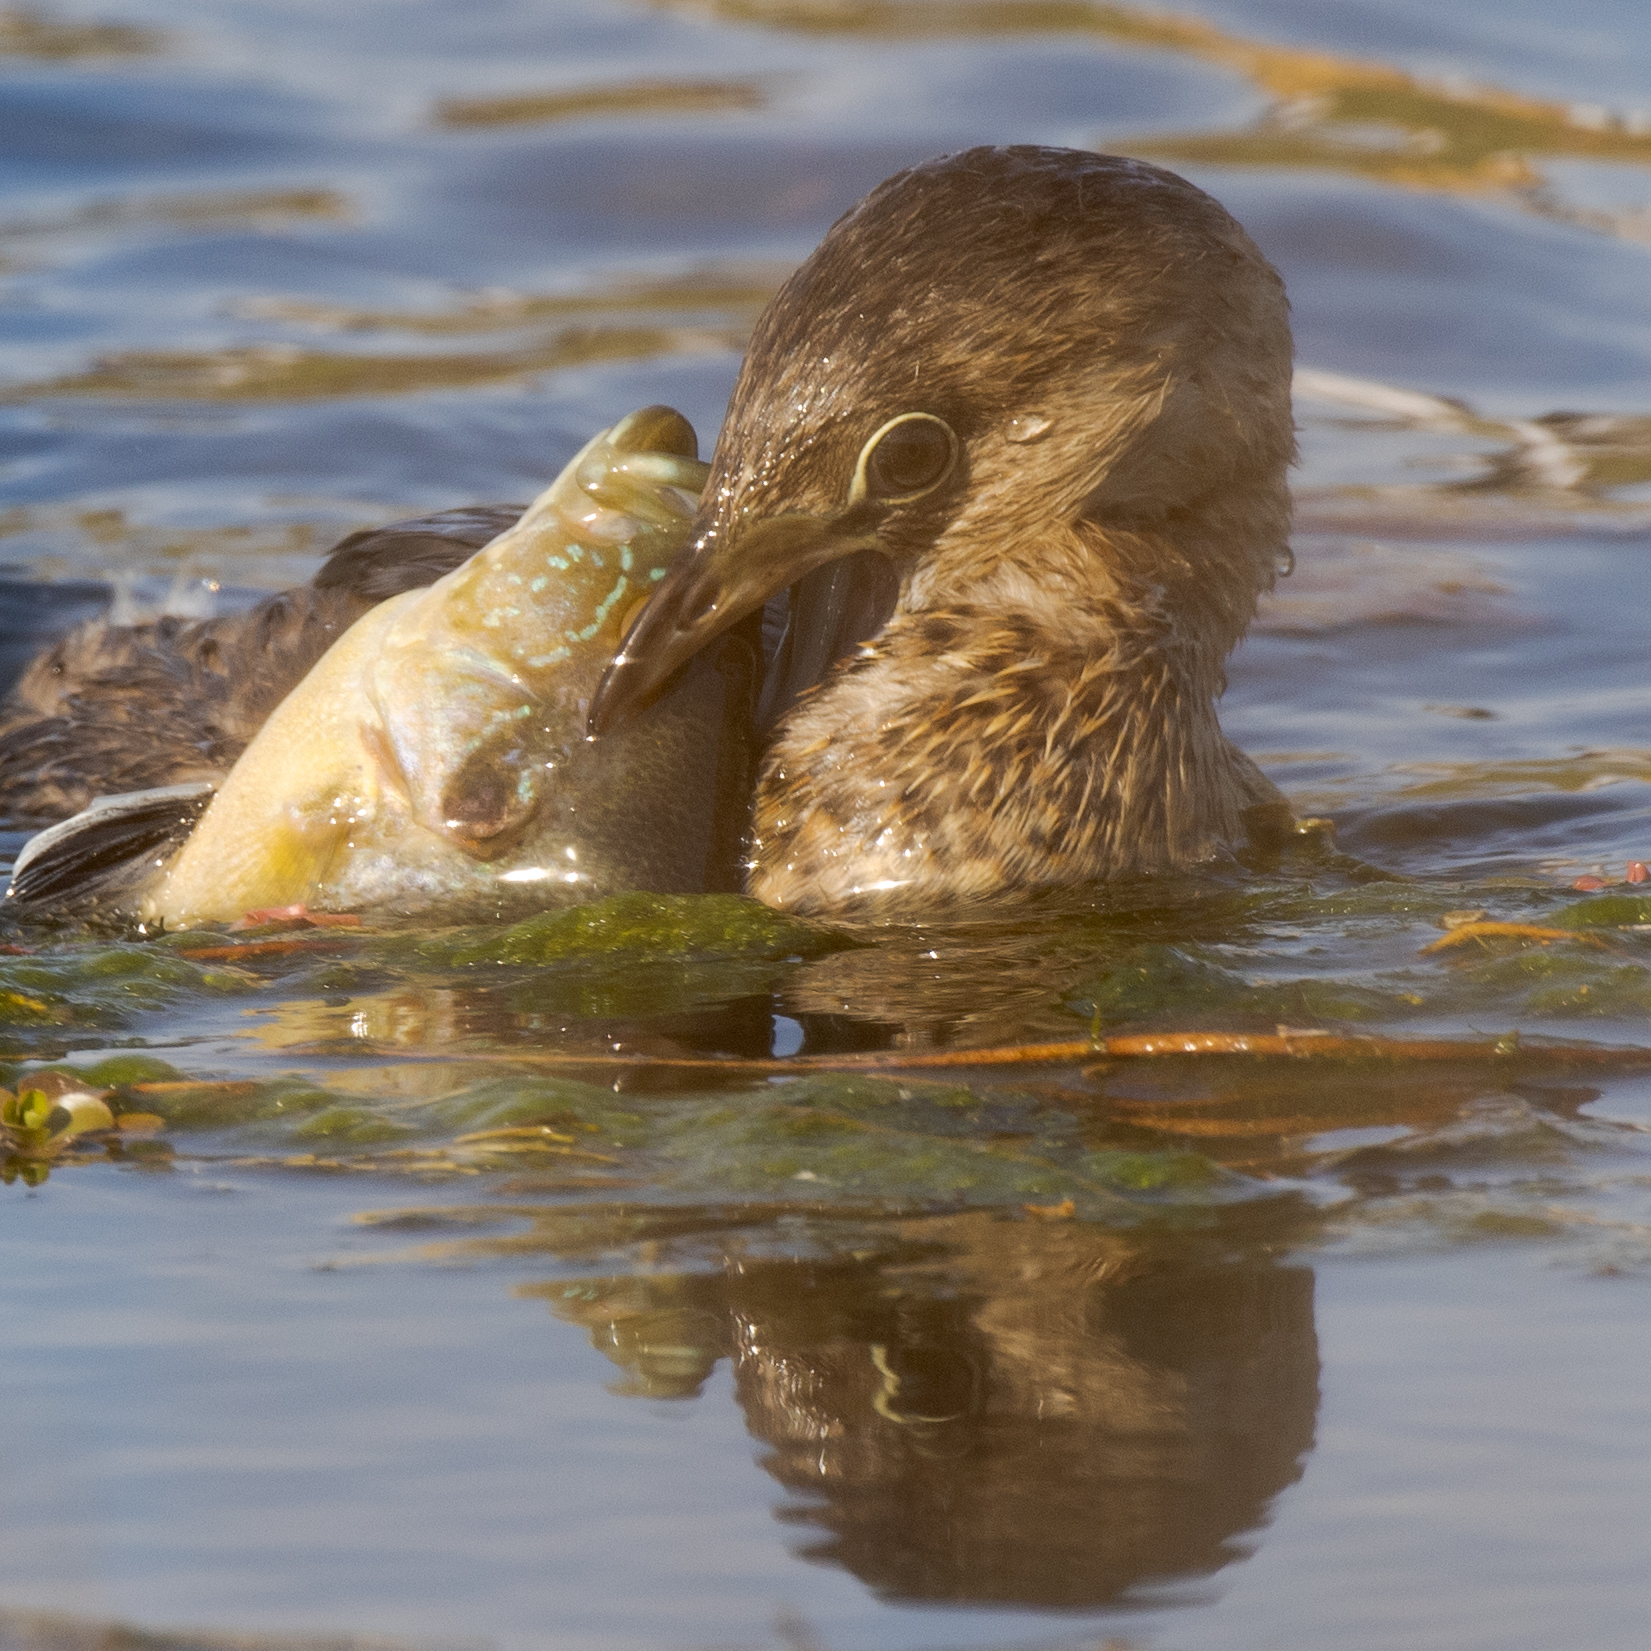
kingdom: Animalia
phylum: Chordata
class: Aves
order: Podicipediformes
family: Podicipedidae
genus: Podilymbus
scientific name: Podilymbus podiceps
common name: Pied-billed grebe
